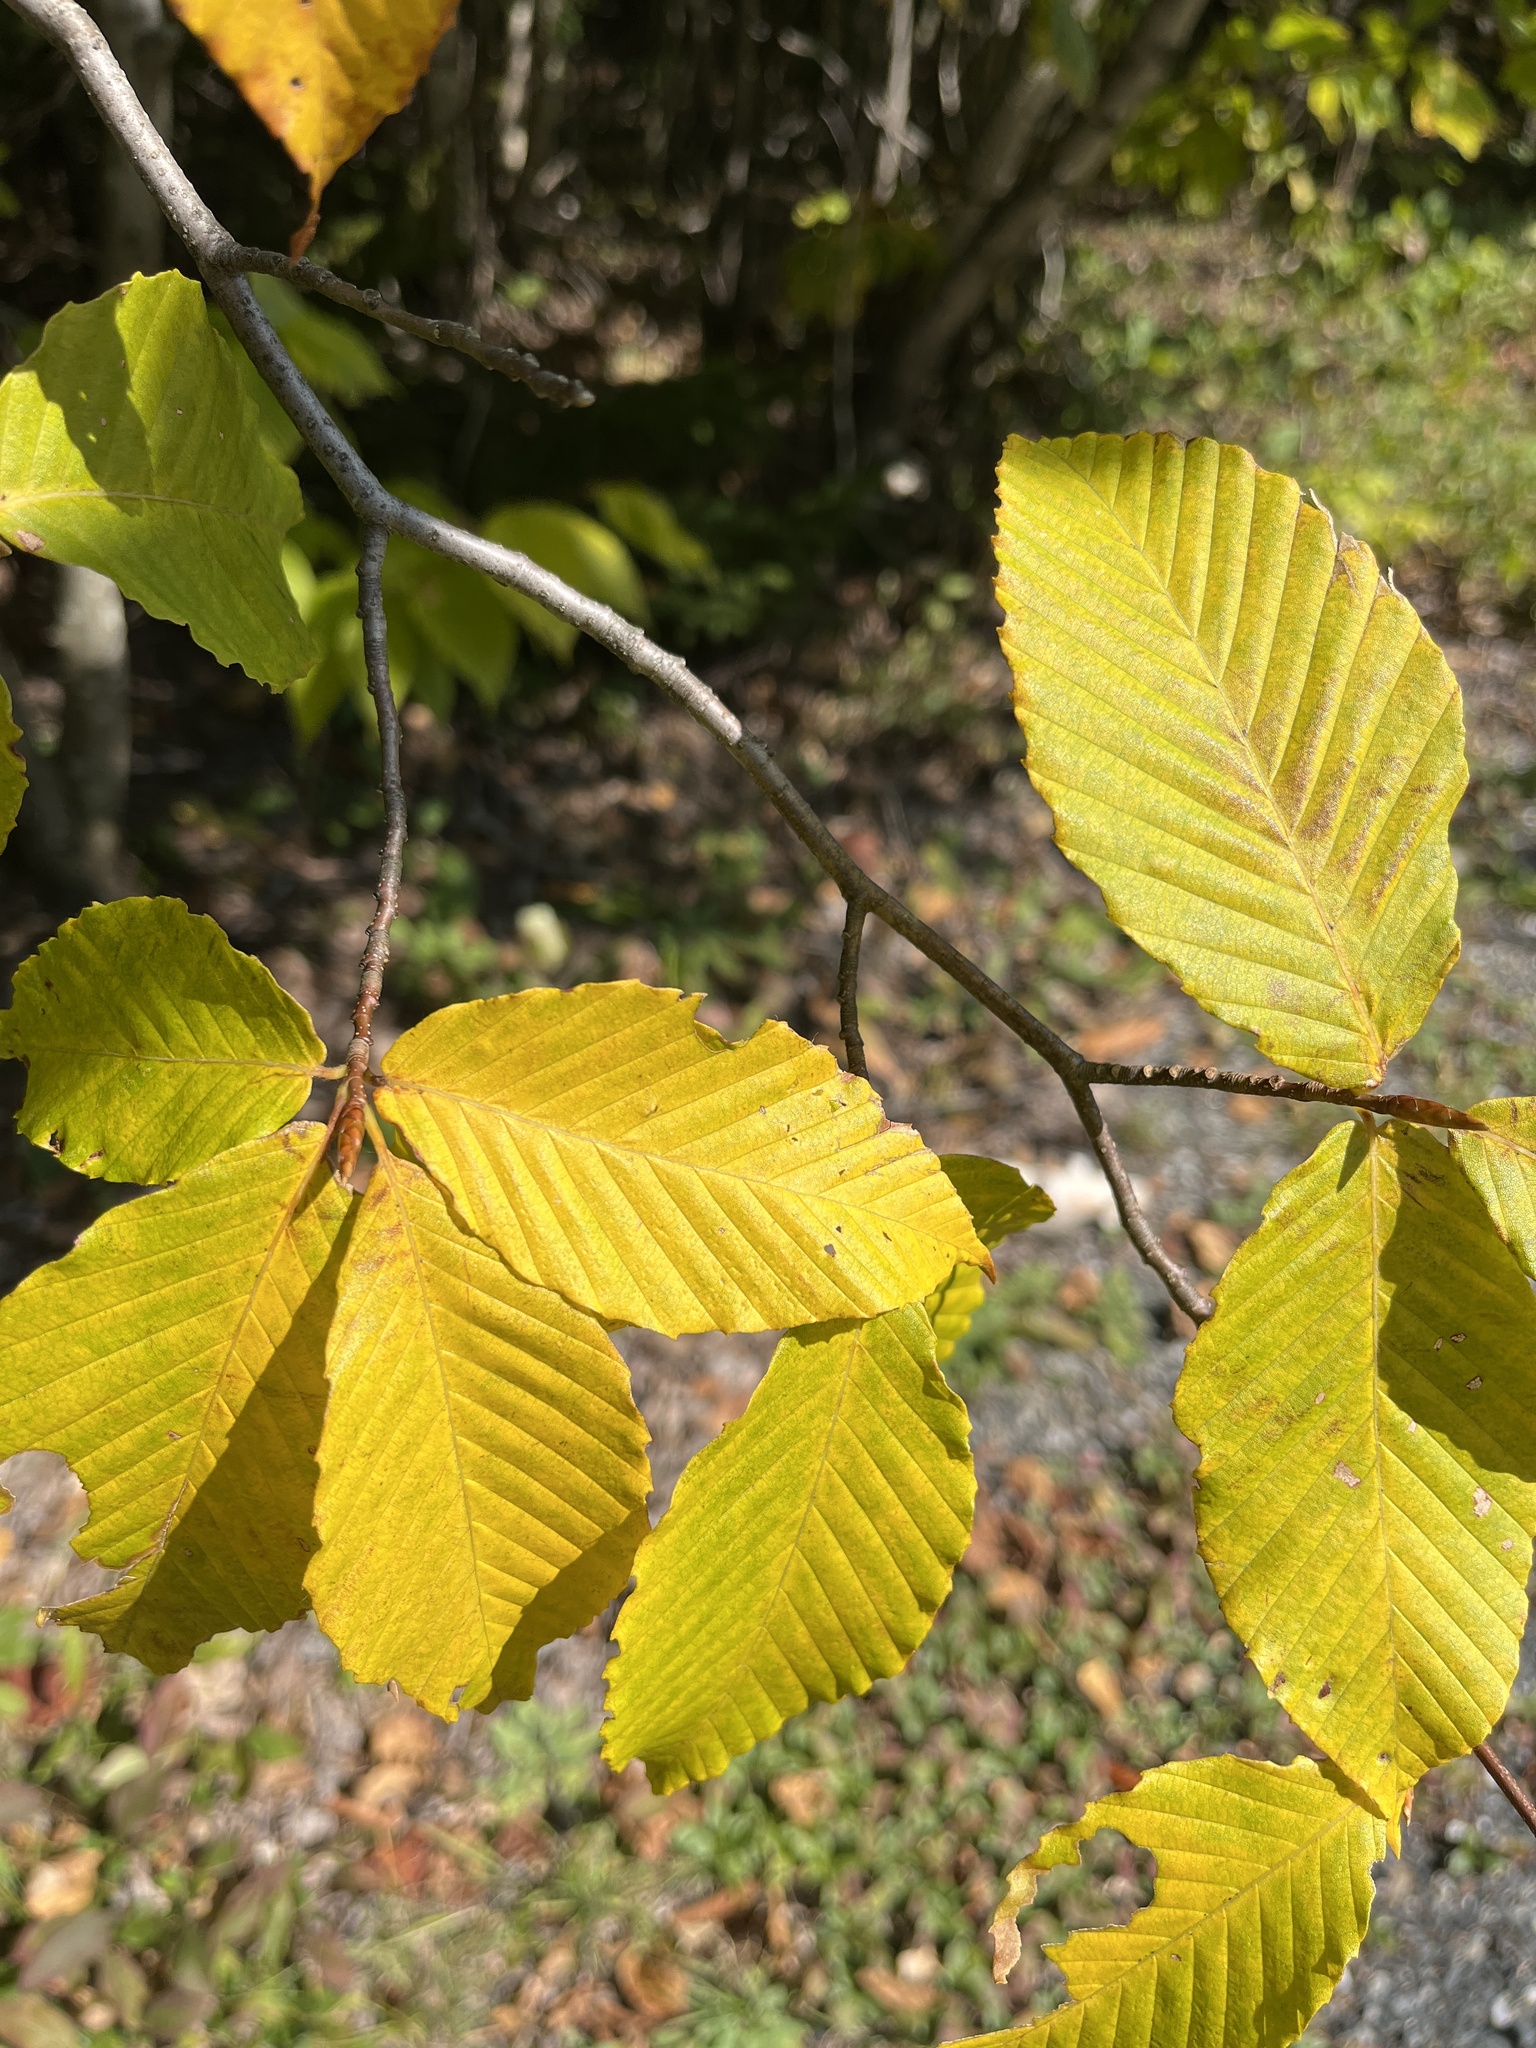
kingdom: Plantae
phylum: Tracheophyta
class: Magnoliopsida
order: Fagales
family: Fagaceae
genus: Fagus
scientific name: Fagus grandifolia
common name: American beech
